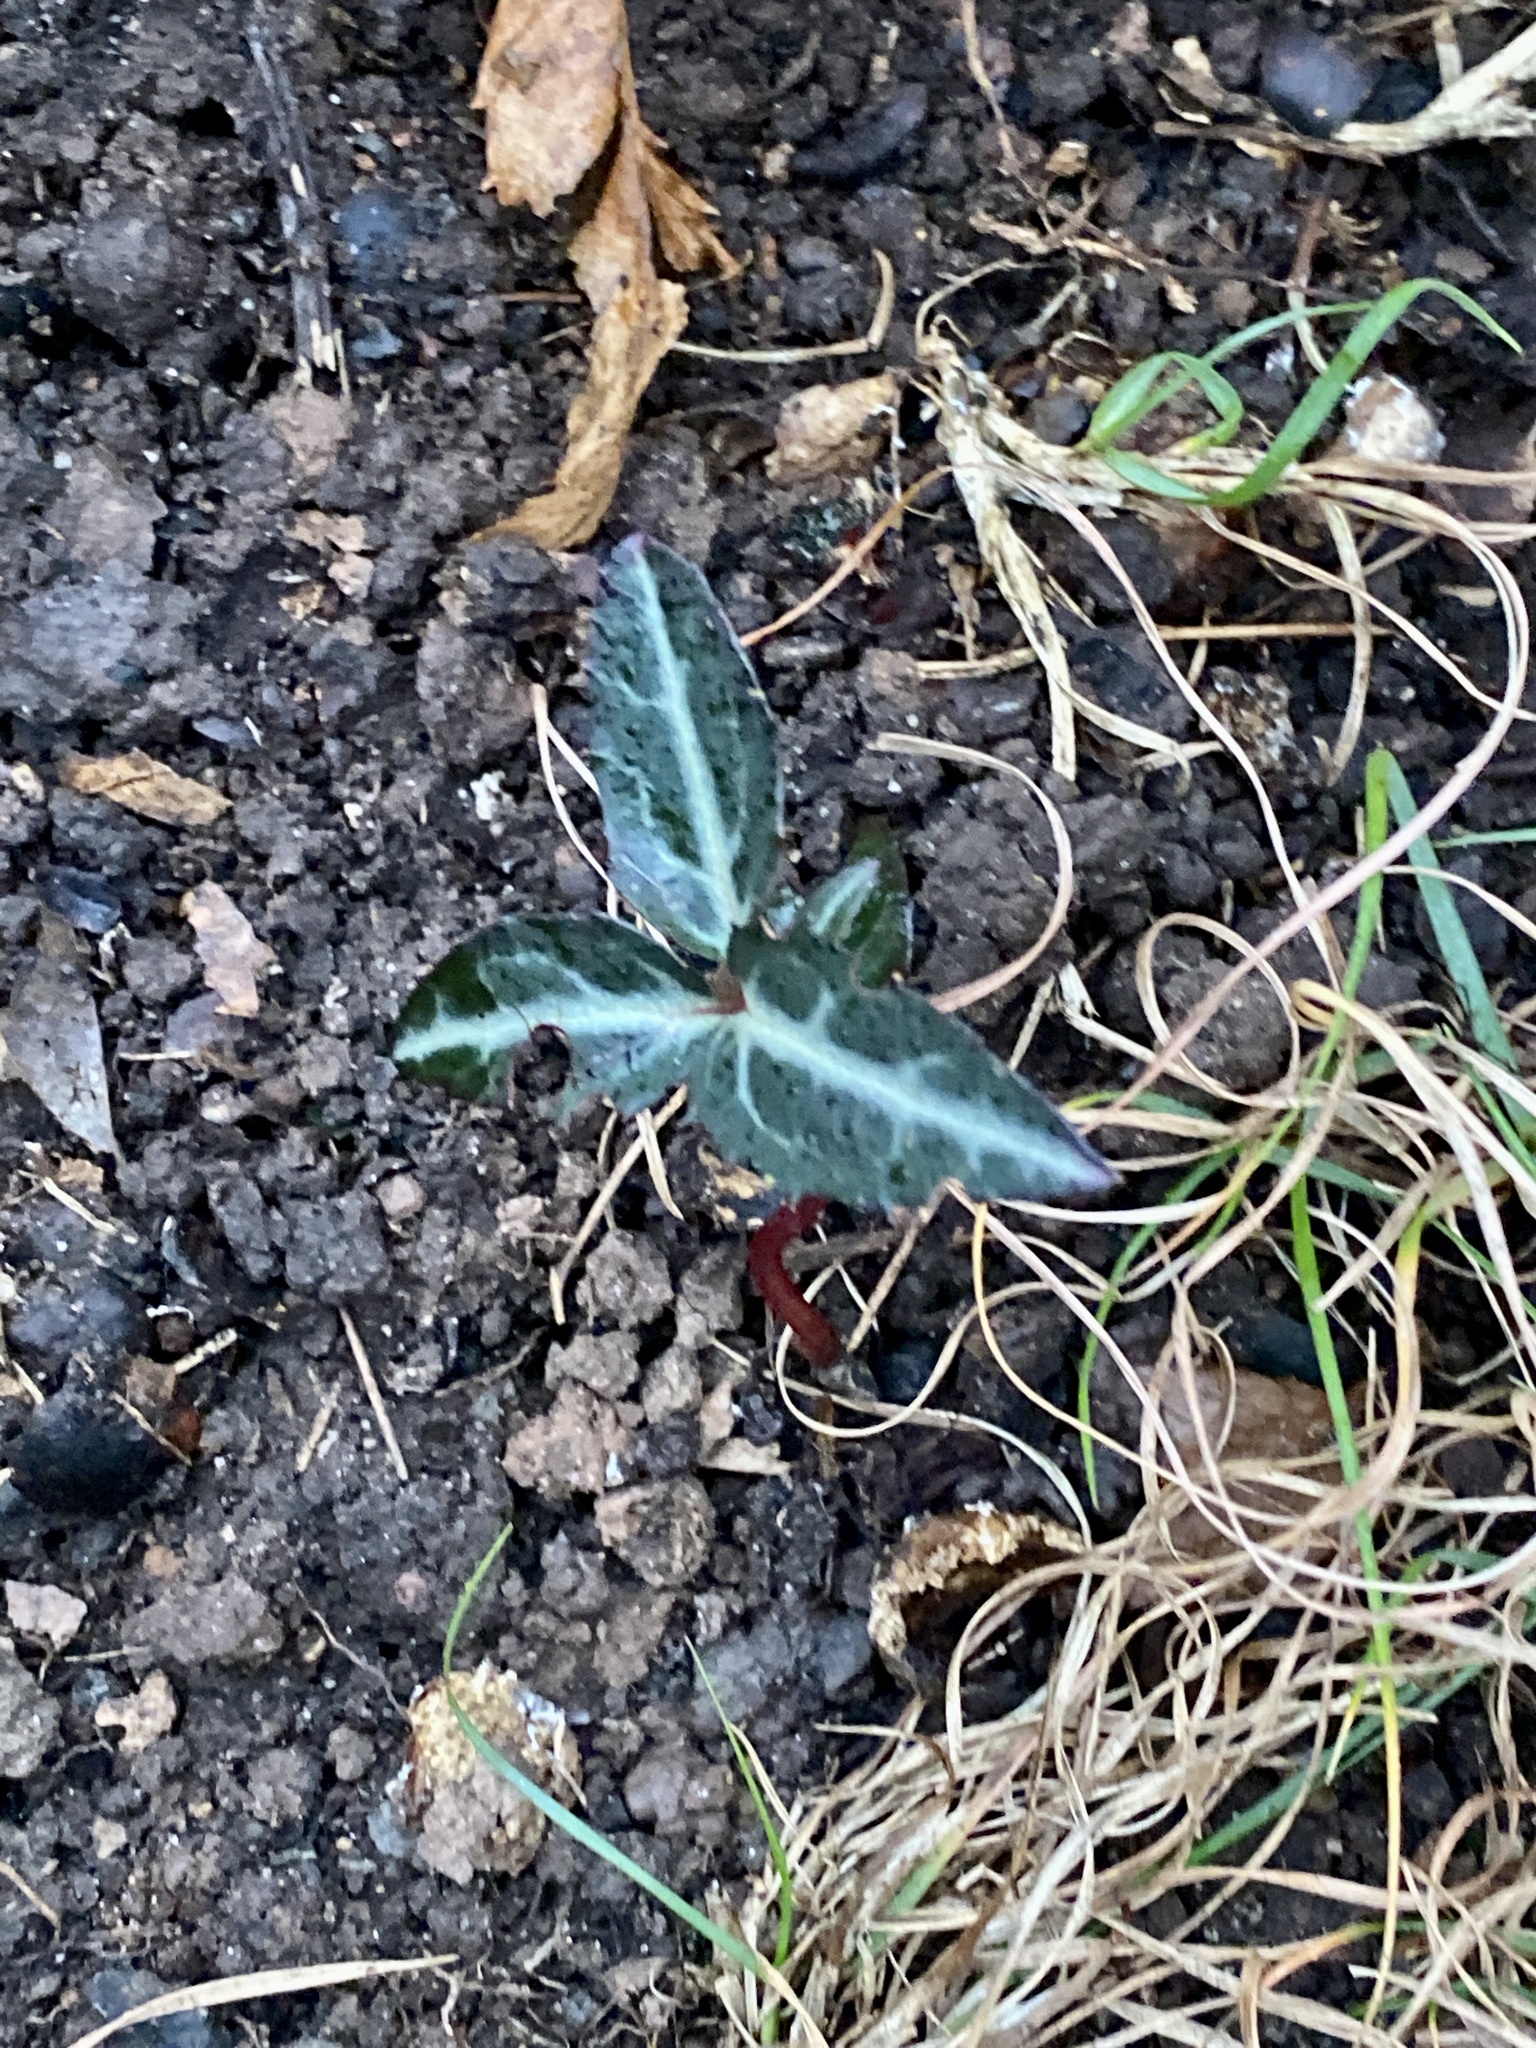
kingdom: Plantae
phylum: Tracheophyta
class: Magnoliopsida
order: Ericales
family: Ericaceae
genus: Chimaphila
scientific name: Chimaphila maculata
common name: Spotted pipsissewa
